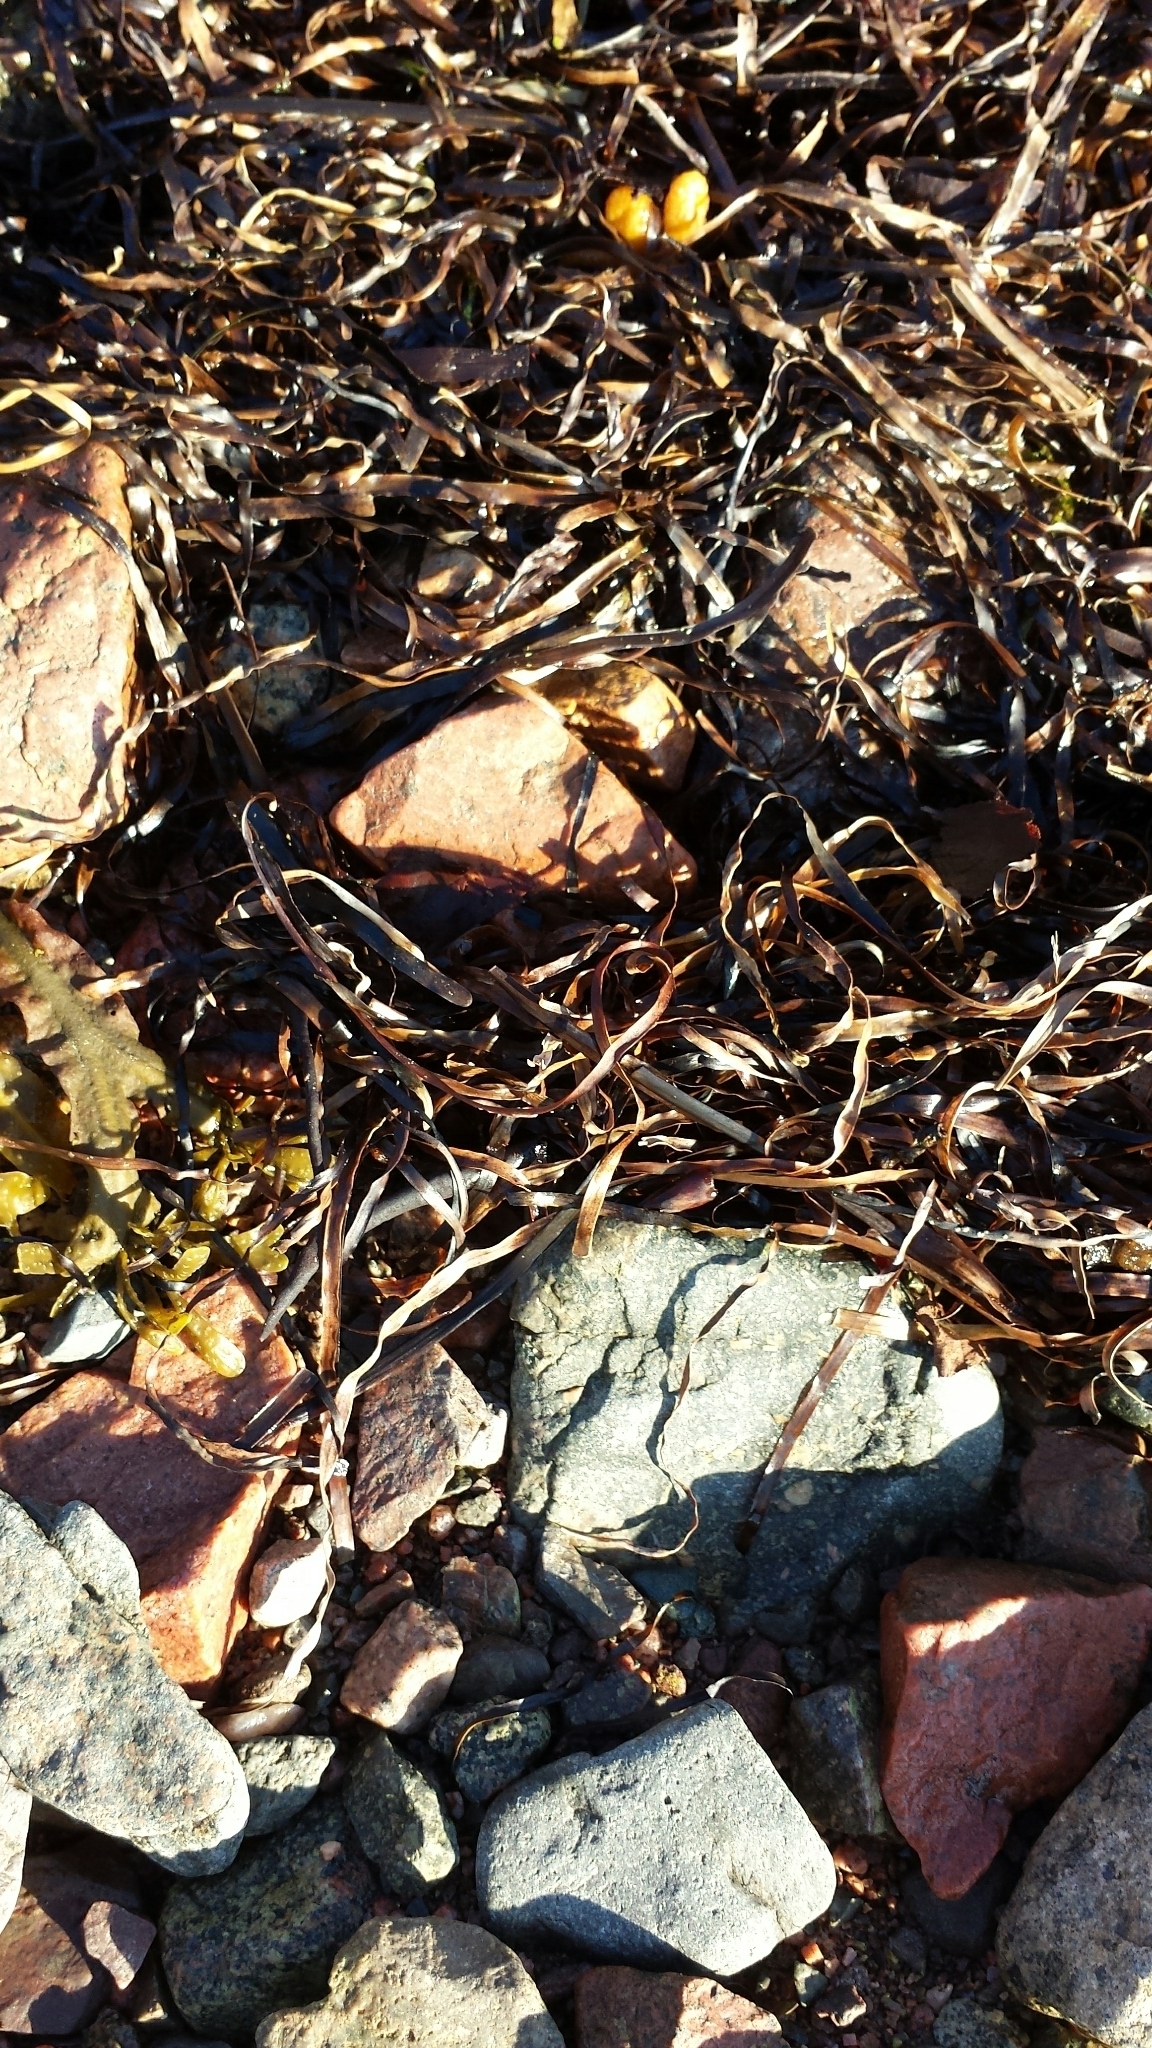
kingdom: Plantae
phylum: Tracheophyta
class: Liliopsida
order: Alismatales
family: Zosteraceae
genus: Zostera
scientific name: Zostera marina
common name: Eelgrass
